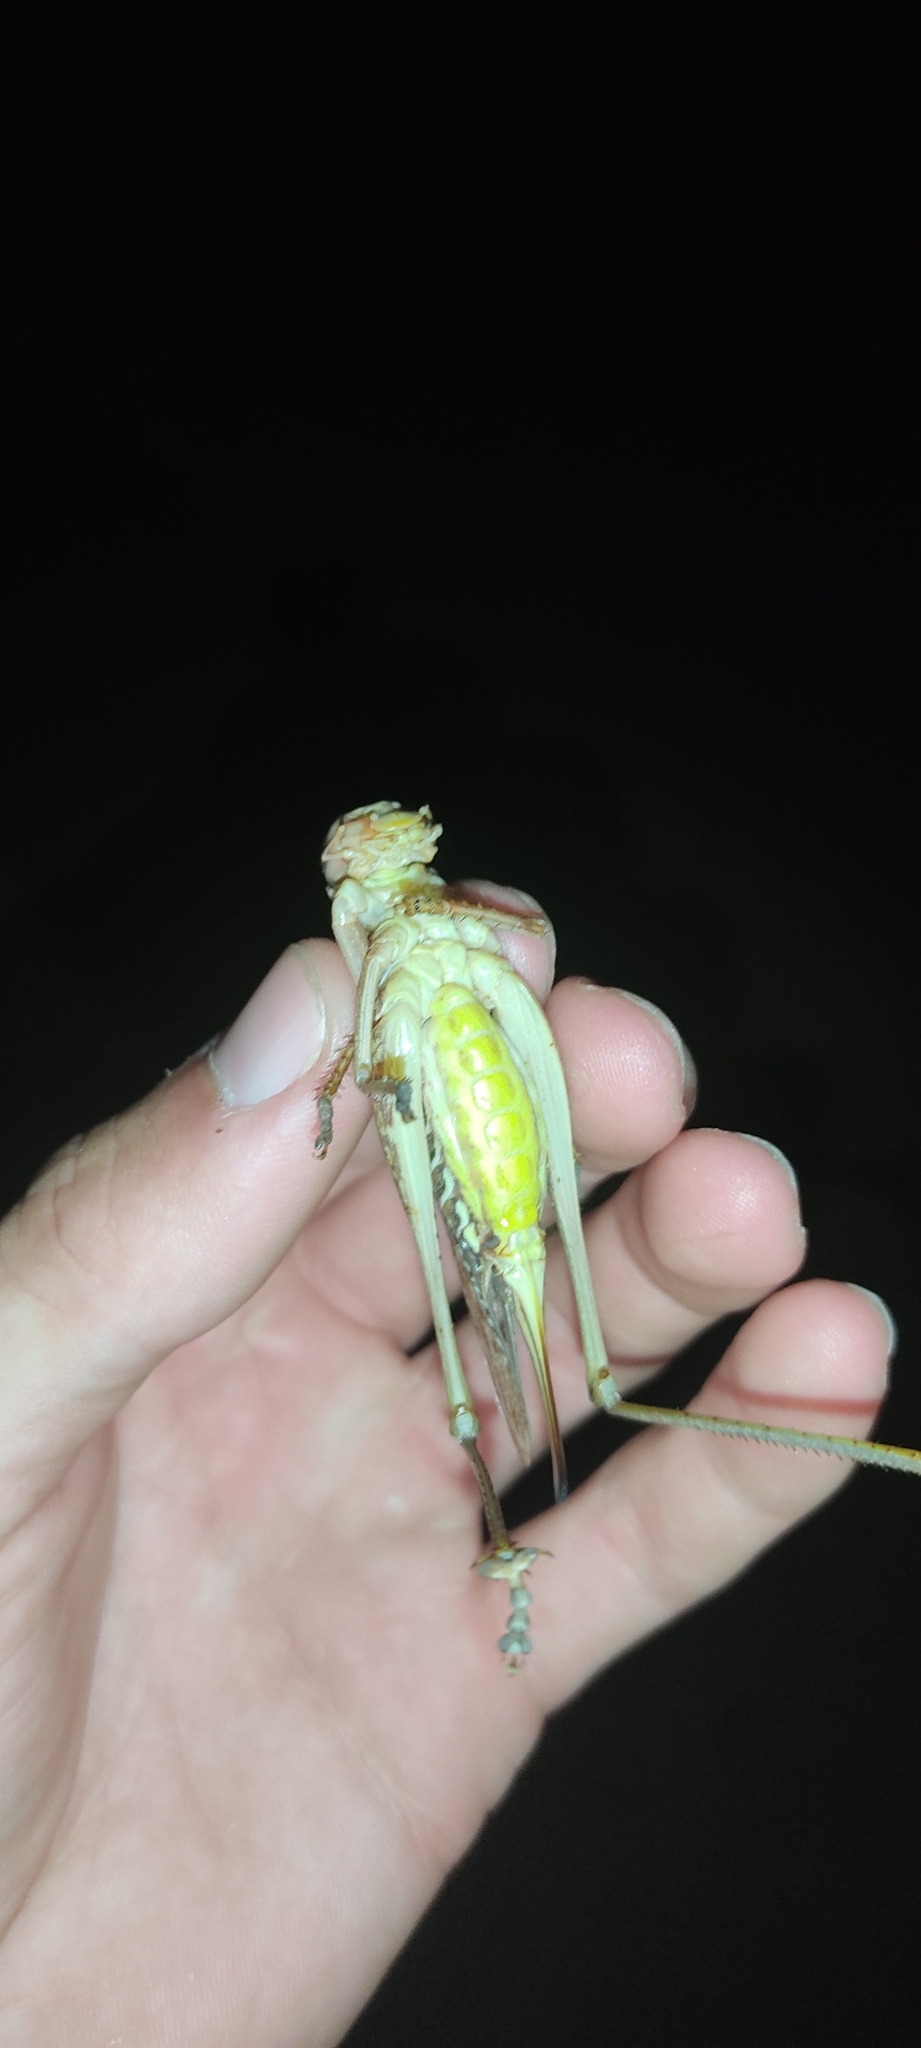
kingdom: Animalia
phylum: Arthropoda
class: Insecta
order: Orthoptera
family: Tettigoniidae
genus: Decticus
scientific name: Decticus albifrons
